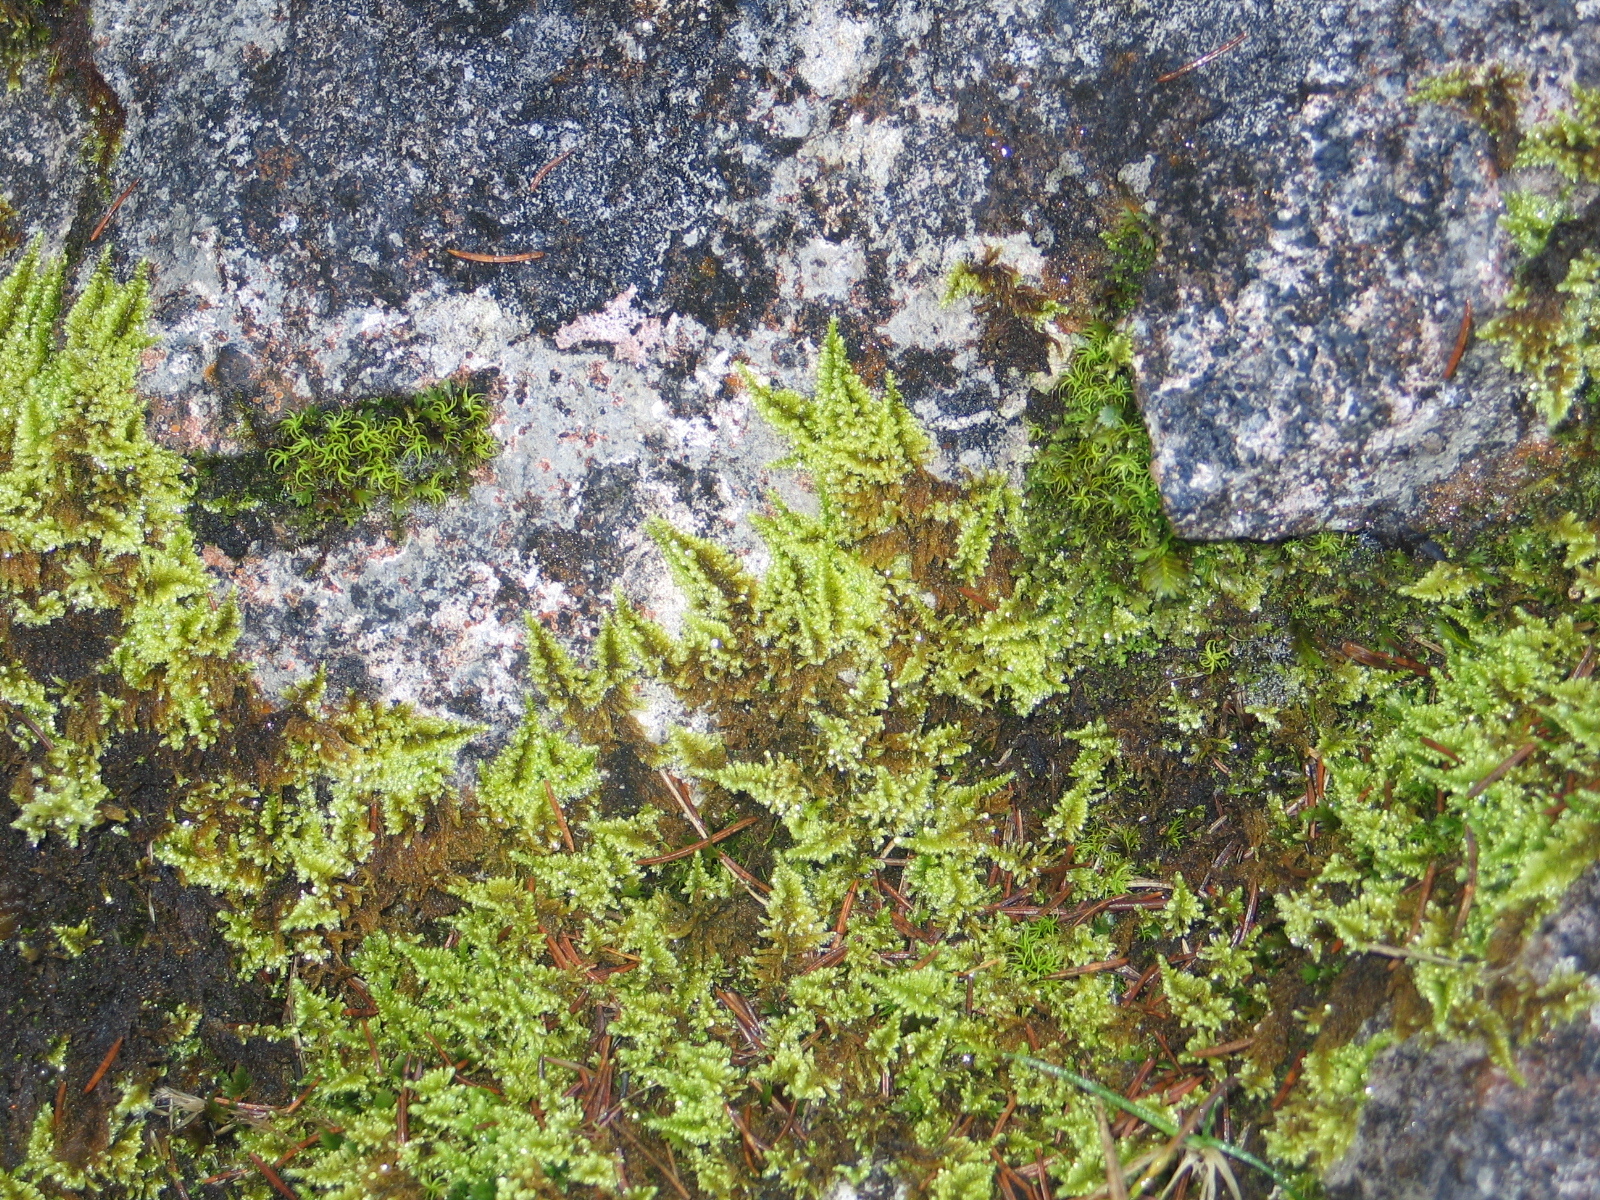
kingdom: Plantae
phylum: Bryophyta
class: Bryopsida
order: Hypnales
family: Myuriaceae
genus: Ctenidium
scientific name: Ctenidium molluscum
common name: Chalk comb-moss
